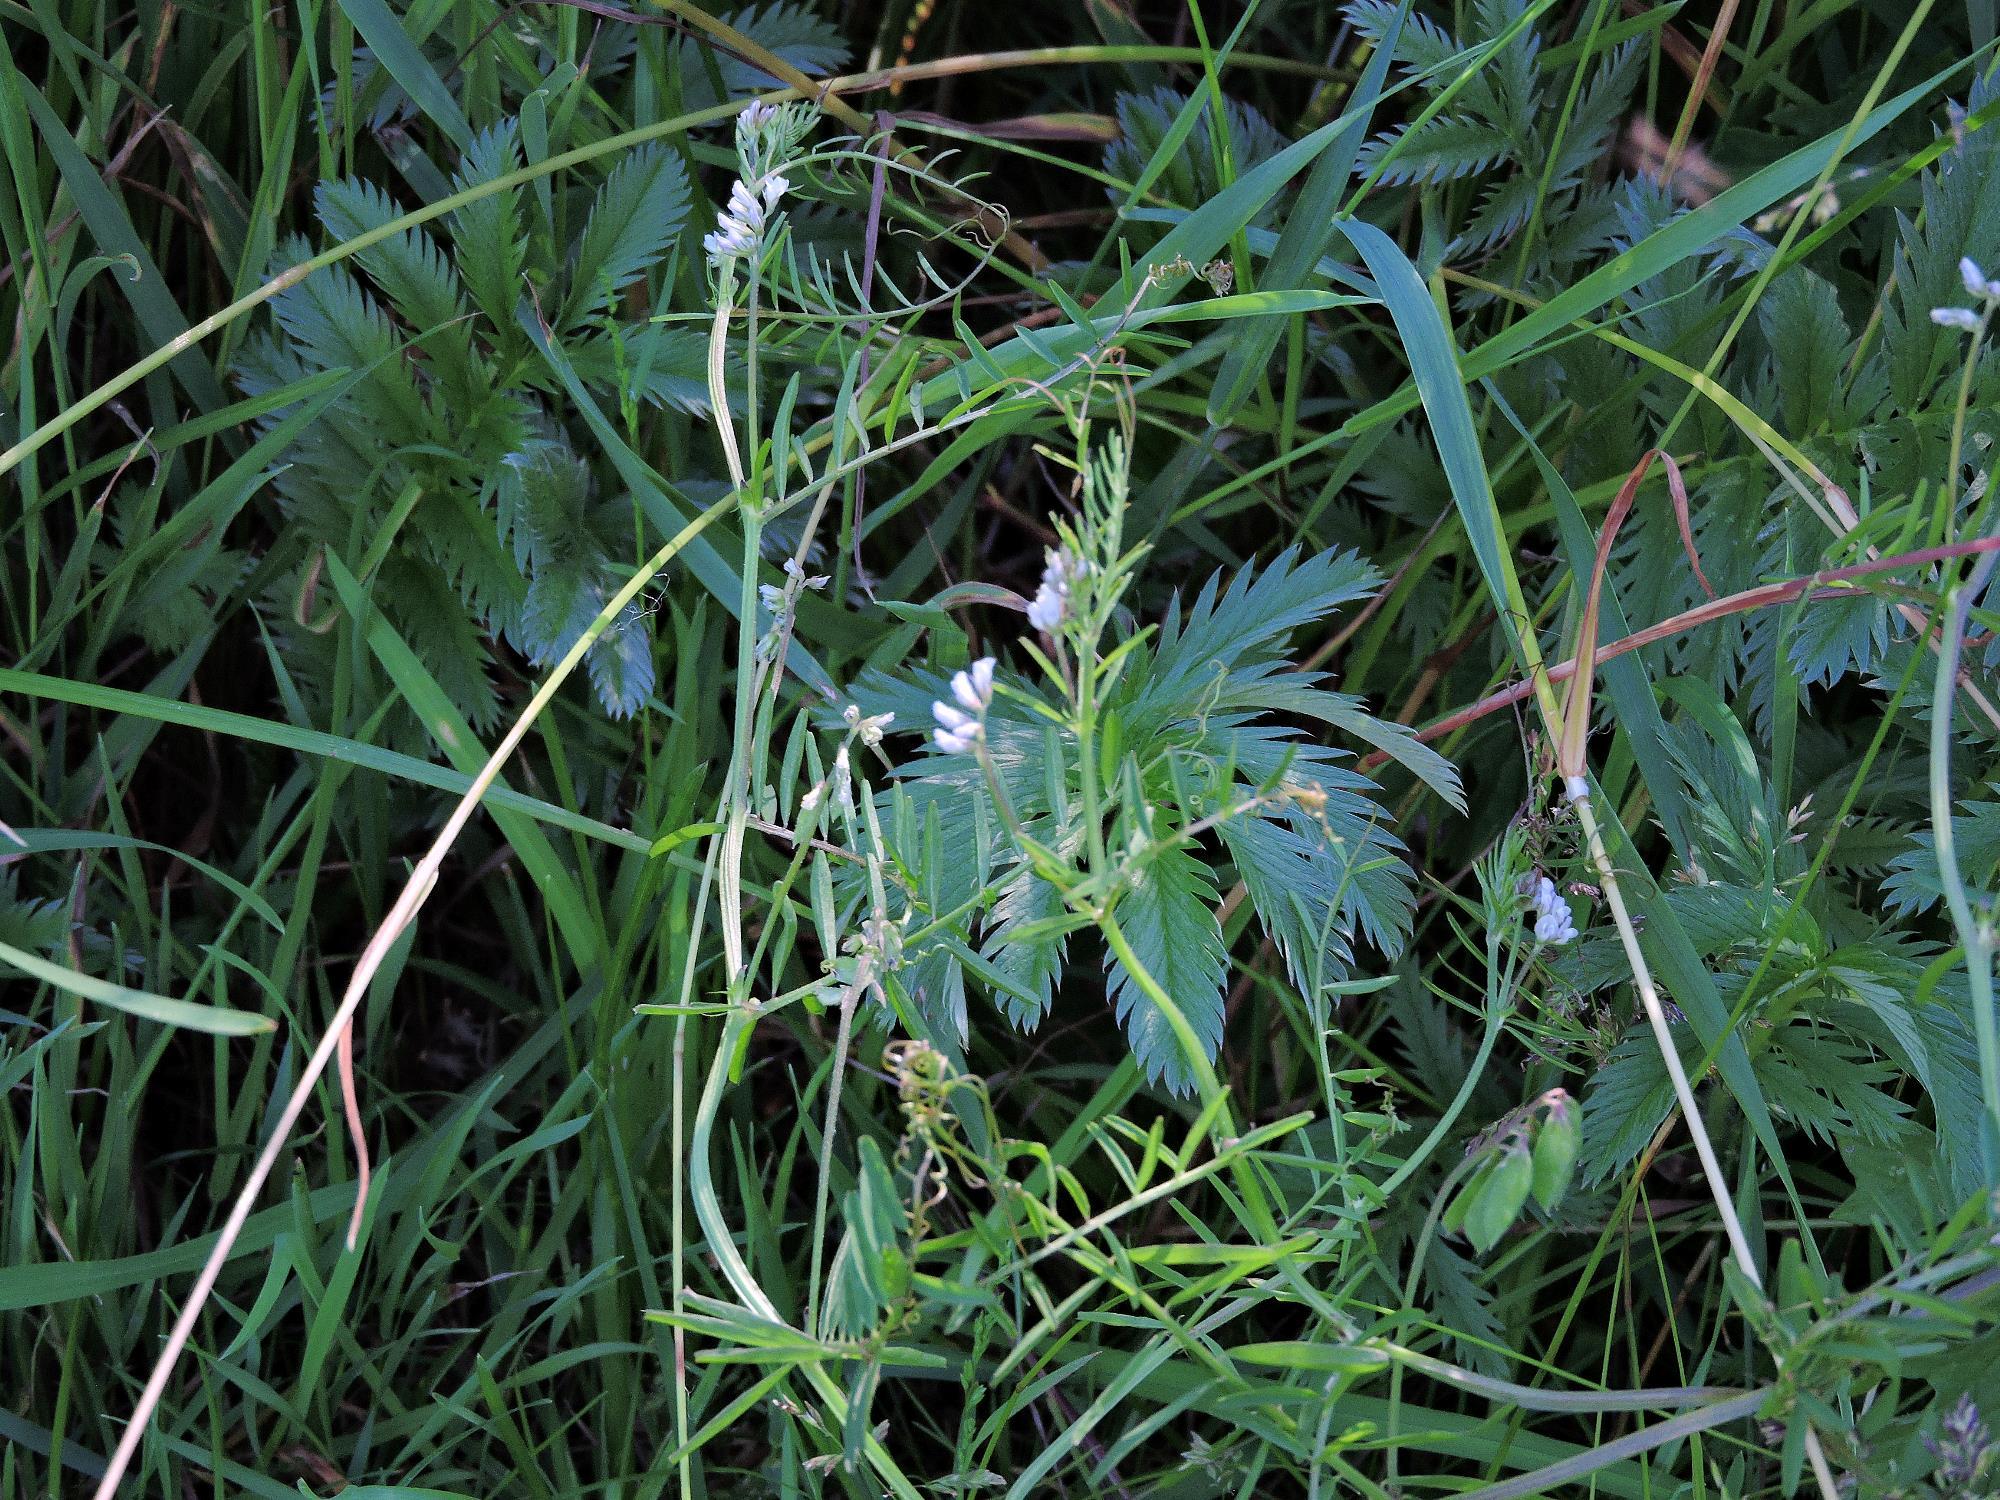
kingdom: Plantae
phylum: Tracheophyta
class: Magnoliopsida
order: Fabales
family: Fabaceae
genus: Vicia
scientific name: Vicia hirsuta
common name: Tiny vetch
